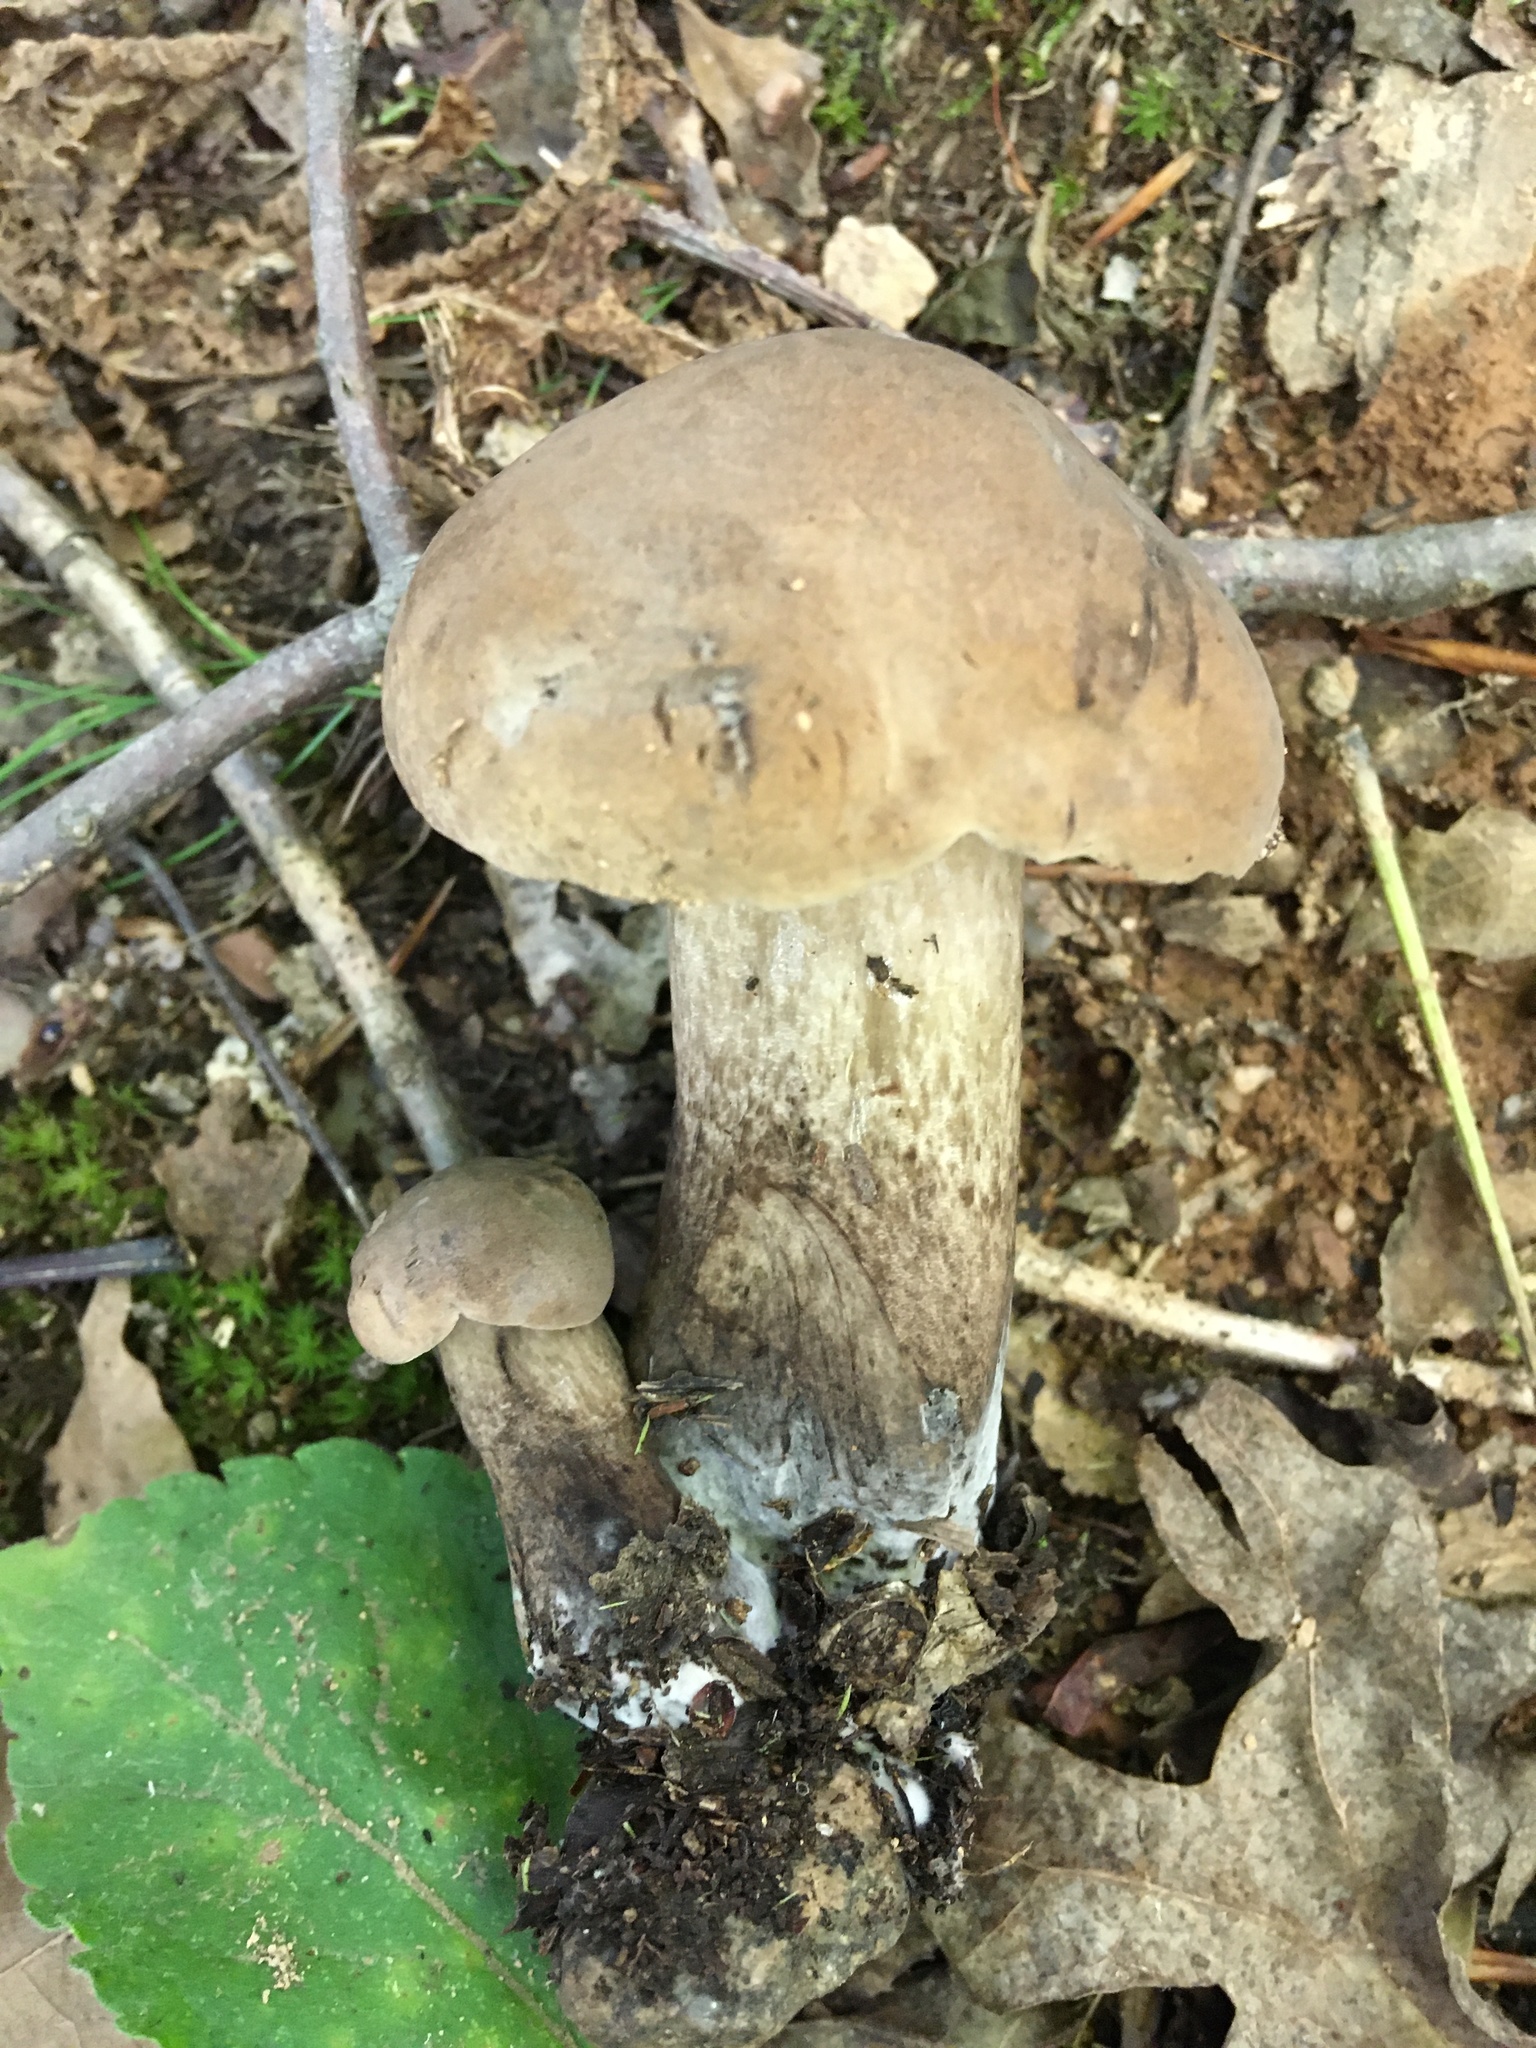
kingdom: Fungi
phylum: Basidiomycota
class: Agaricomycetes
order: Boletales
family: Boletaceae
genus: Tylopilus
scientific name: Tylopilus ferrugineus
